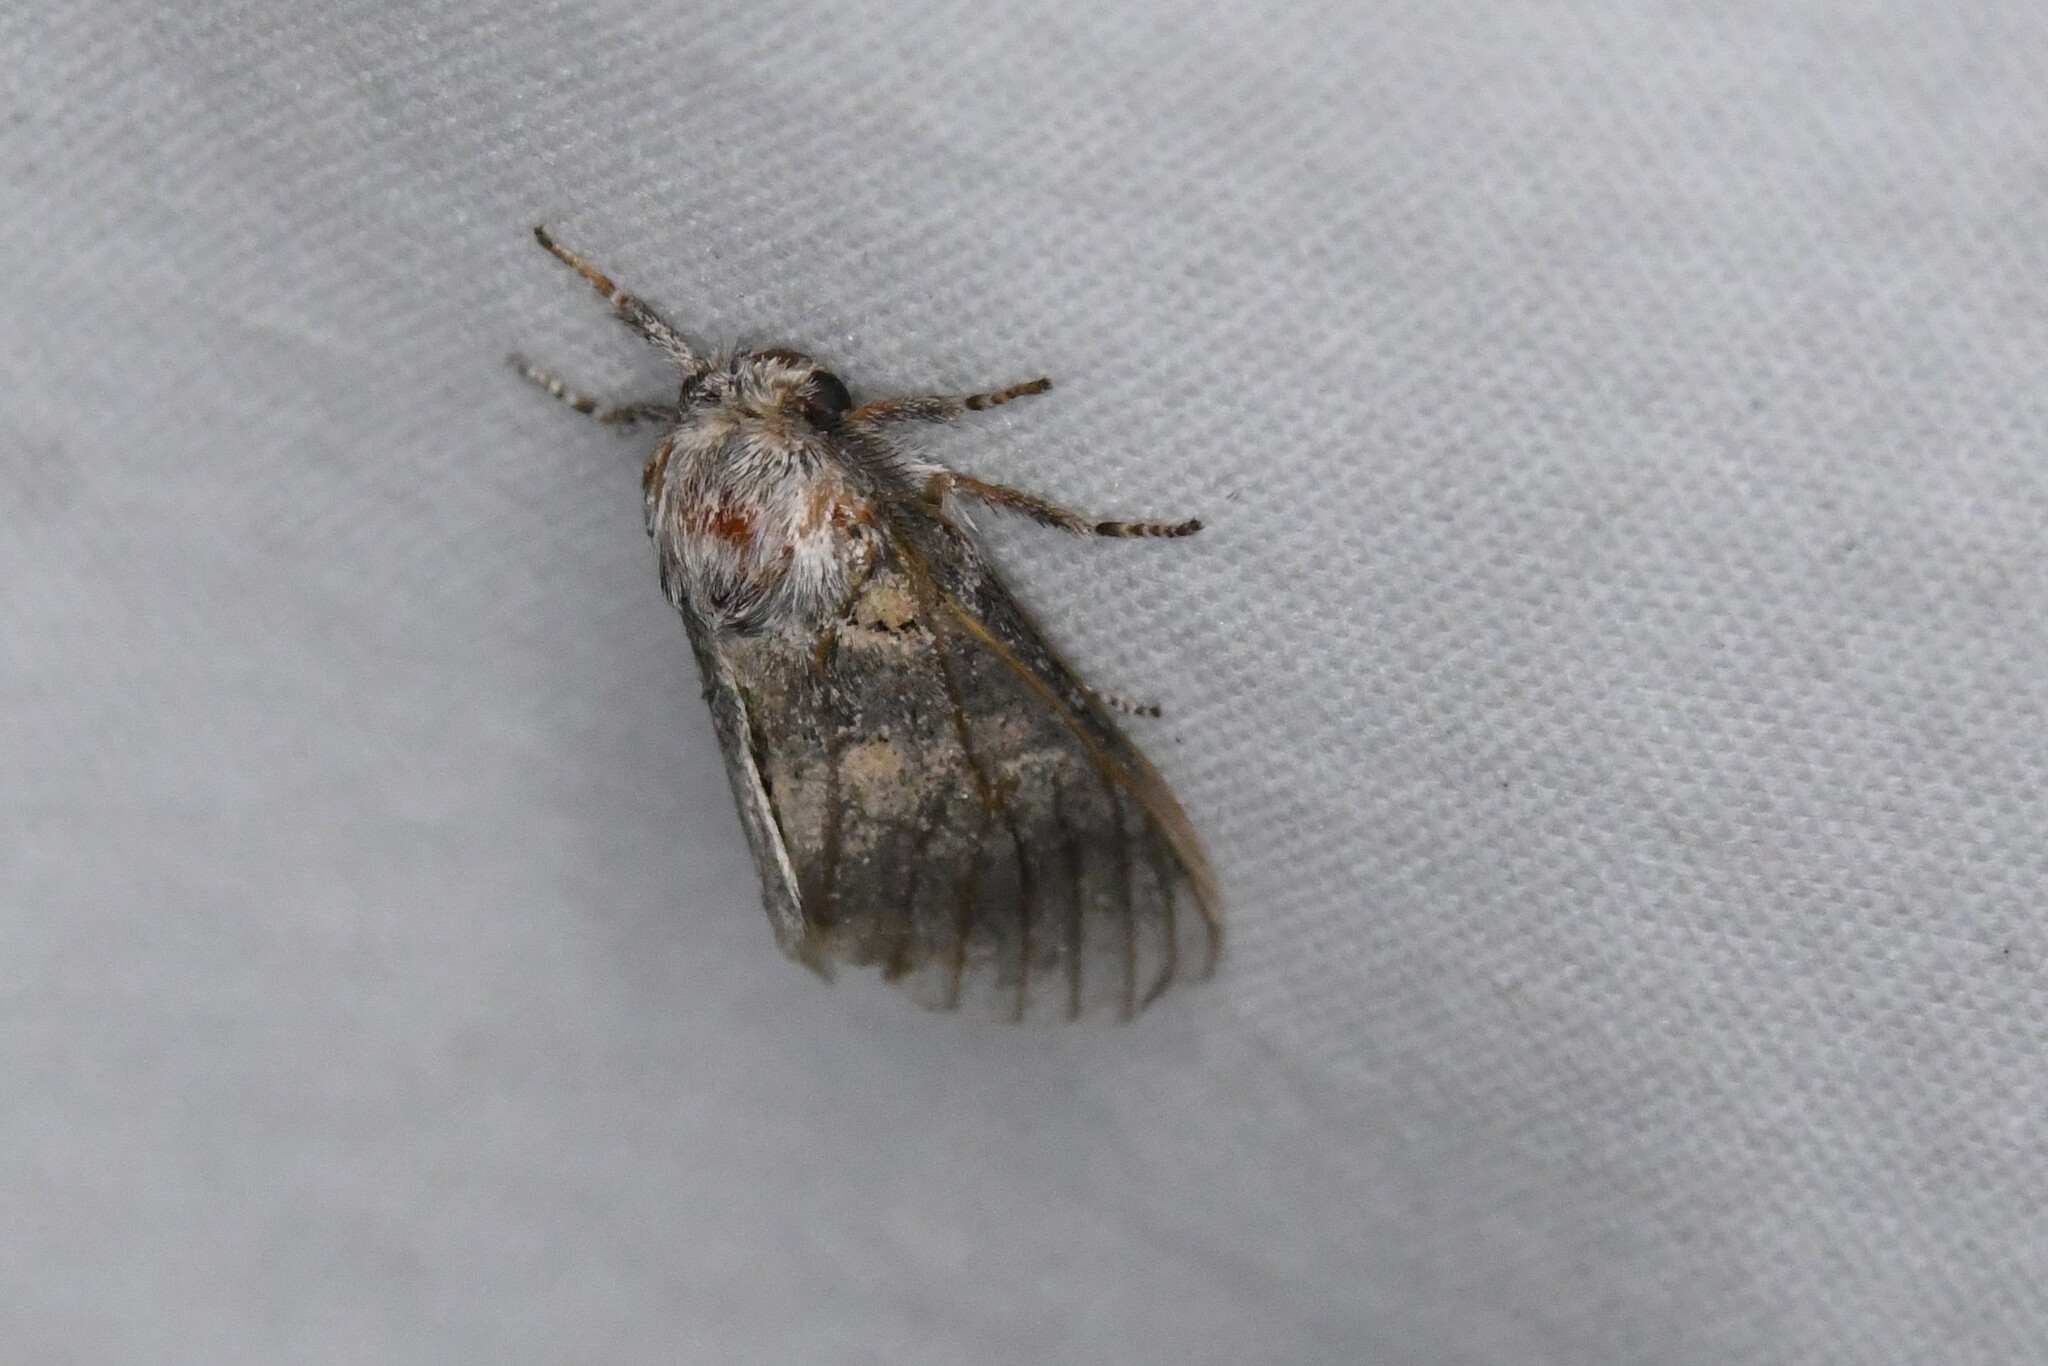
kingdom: Animalia
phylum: Arthropoda
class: Insecta
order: Lepidoptera
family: Notodontidae
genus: Gluphisia
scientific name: Gluphisia septentrionis
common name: Common gluphisia
